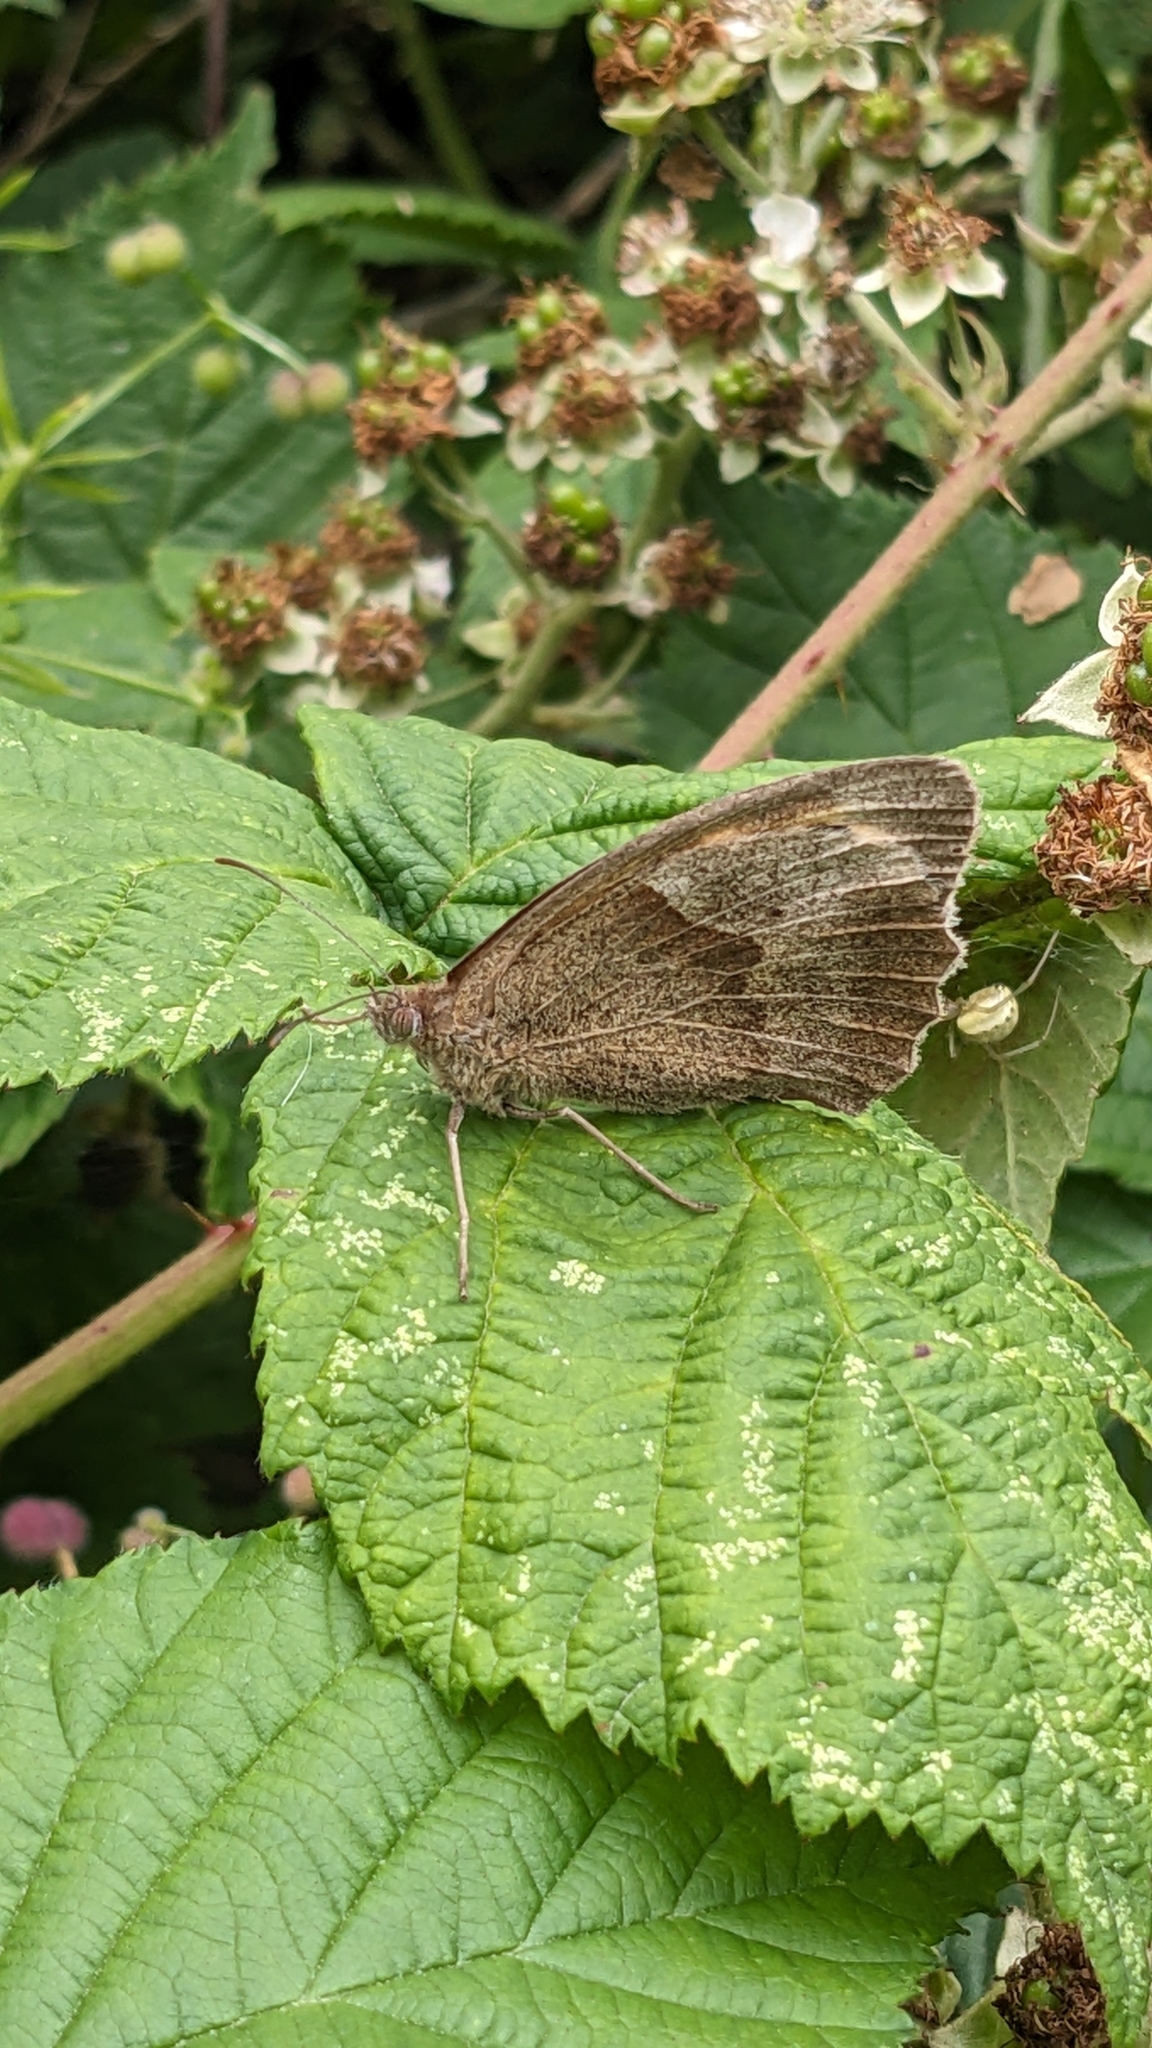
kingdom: Animalia
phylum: Arthropoda
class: Insecta
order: Lepidoptera
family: Nymphalidae
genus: Maniola
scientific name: Maniola jurtina
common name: Meadow brown
